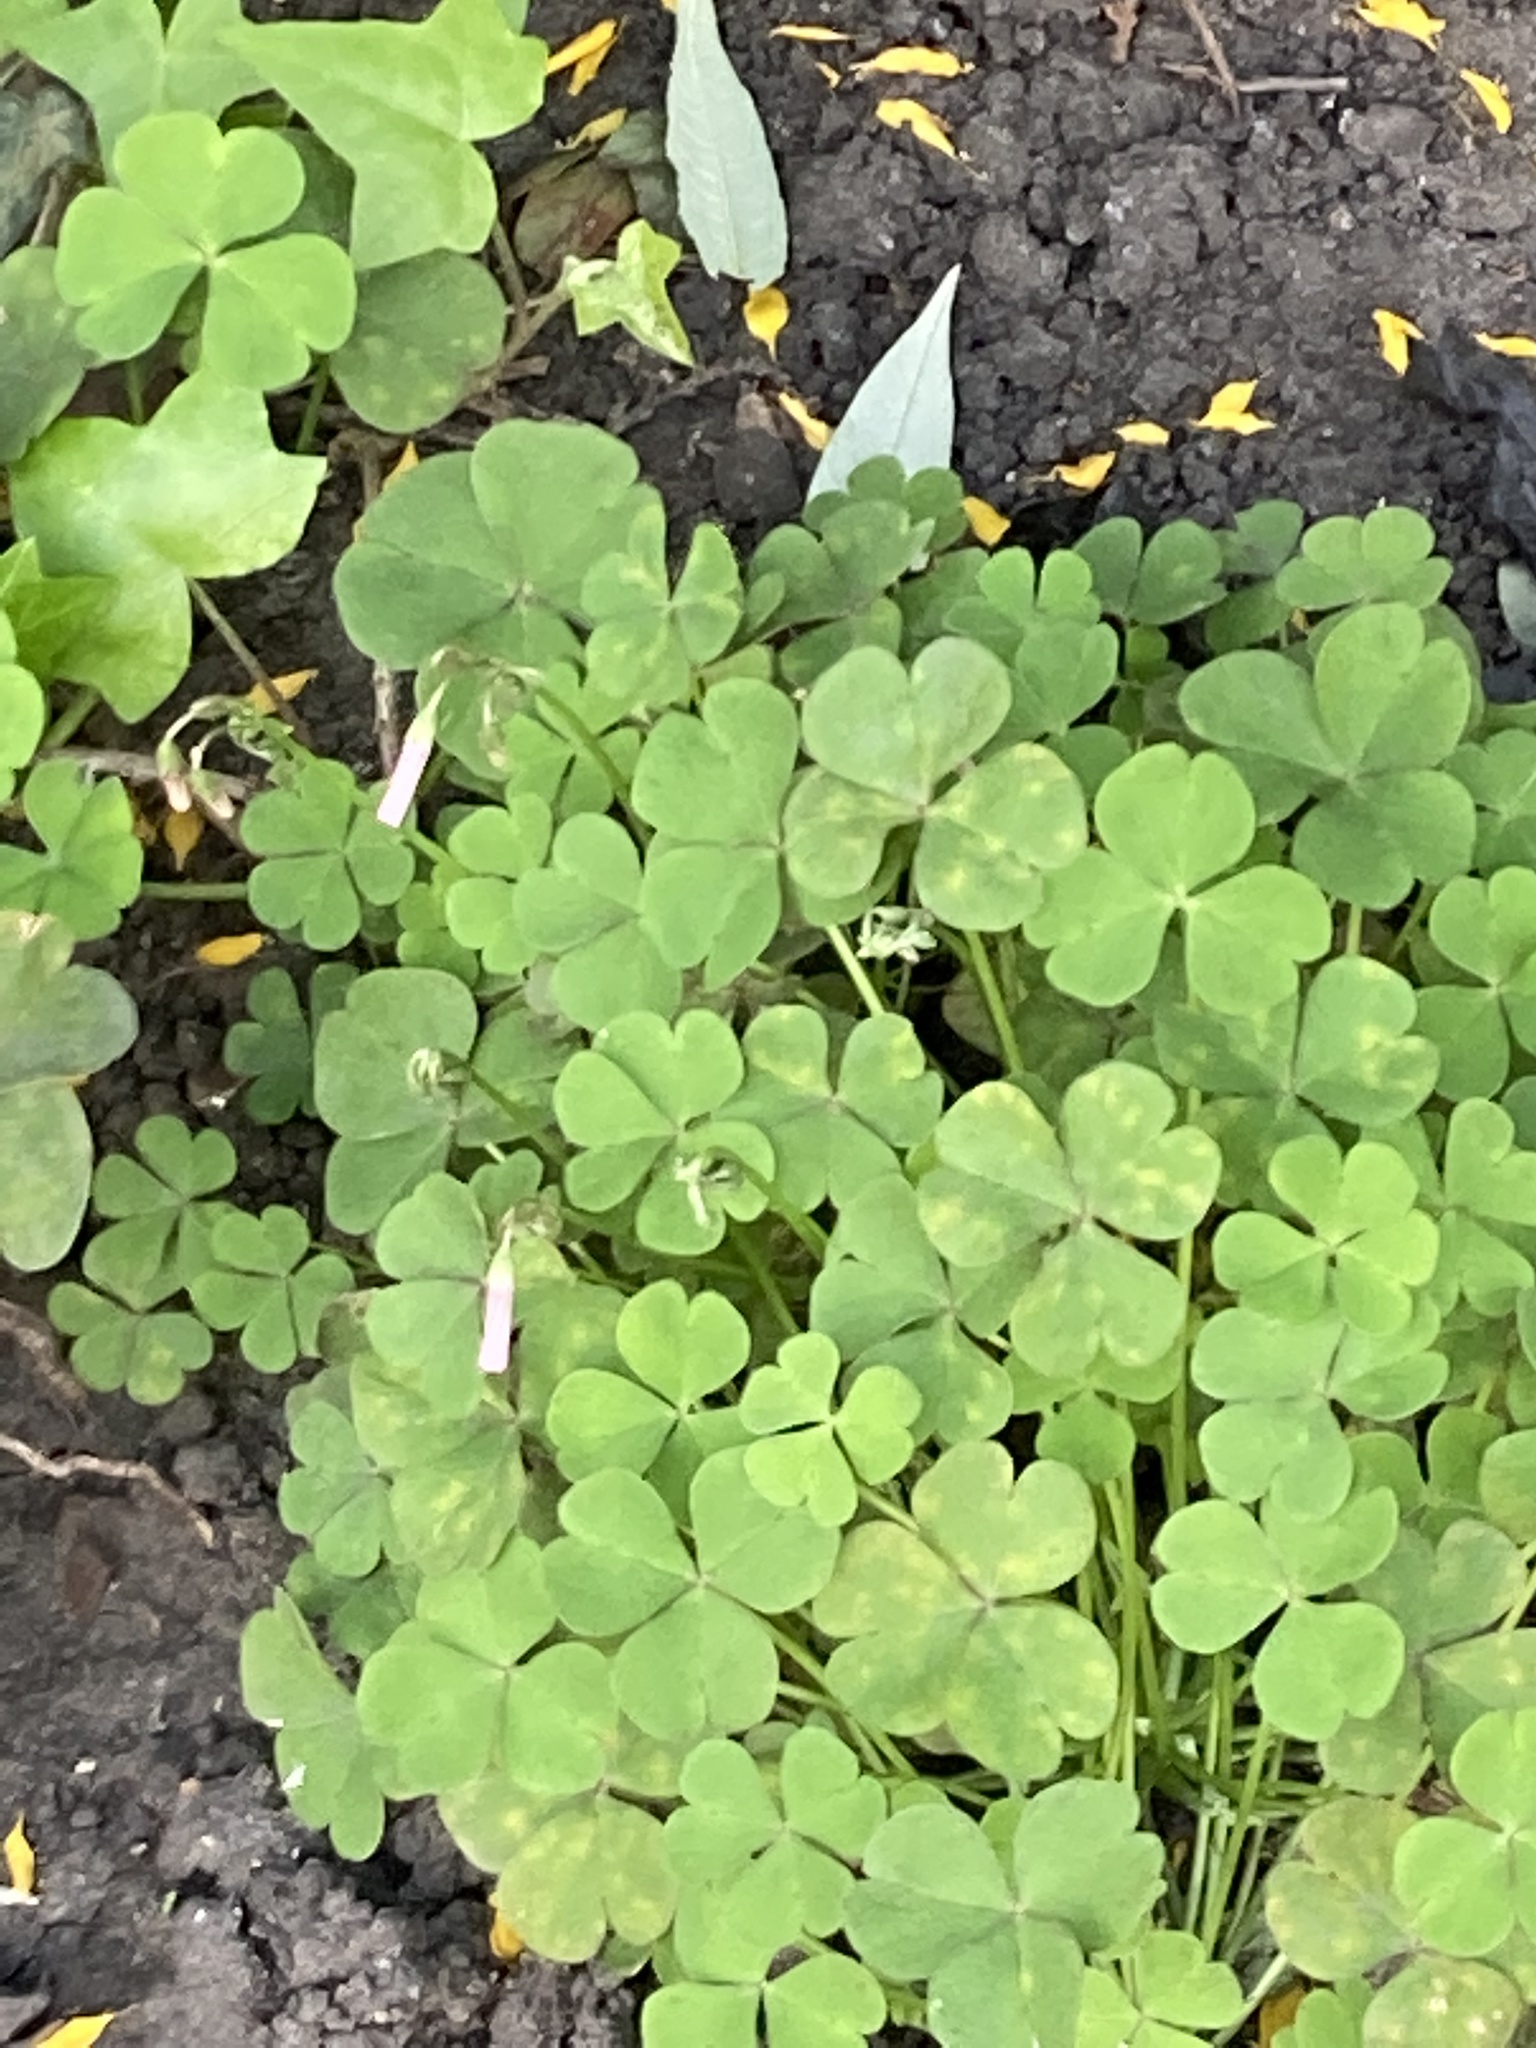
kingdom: Plantae
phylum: Tracheophyta
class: Magnoliopsida
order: Oxalidales
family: Oxalidaceae
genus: Oxalis
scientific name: Oxalis articulata
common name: Pink-sorrel
